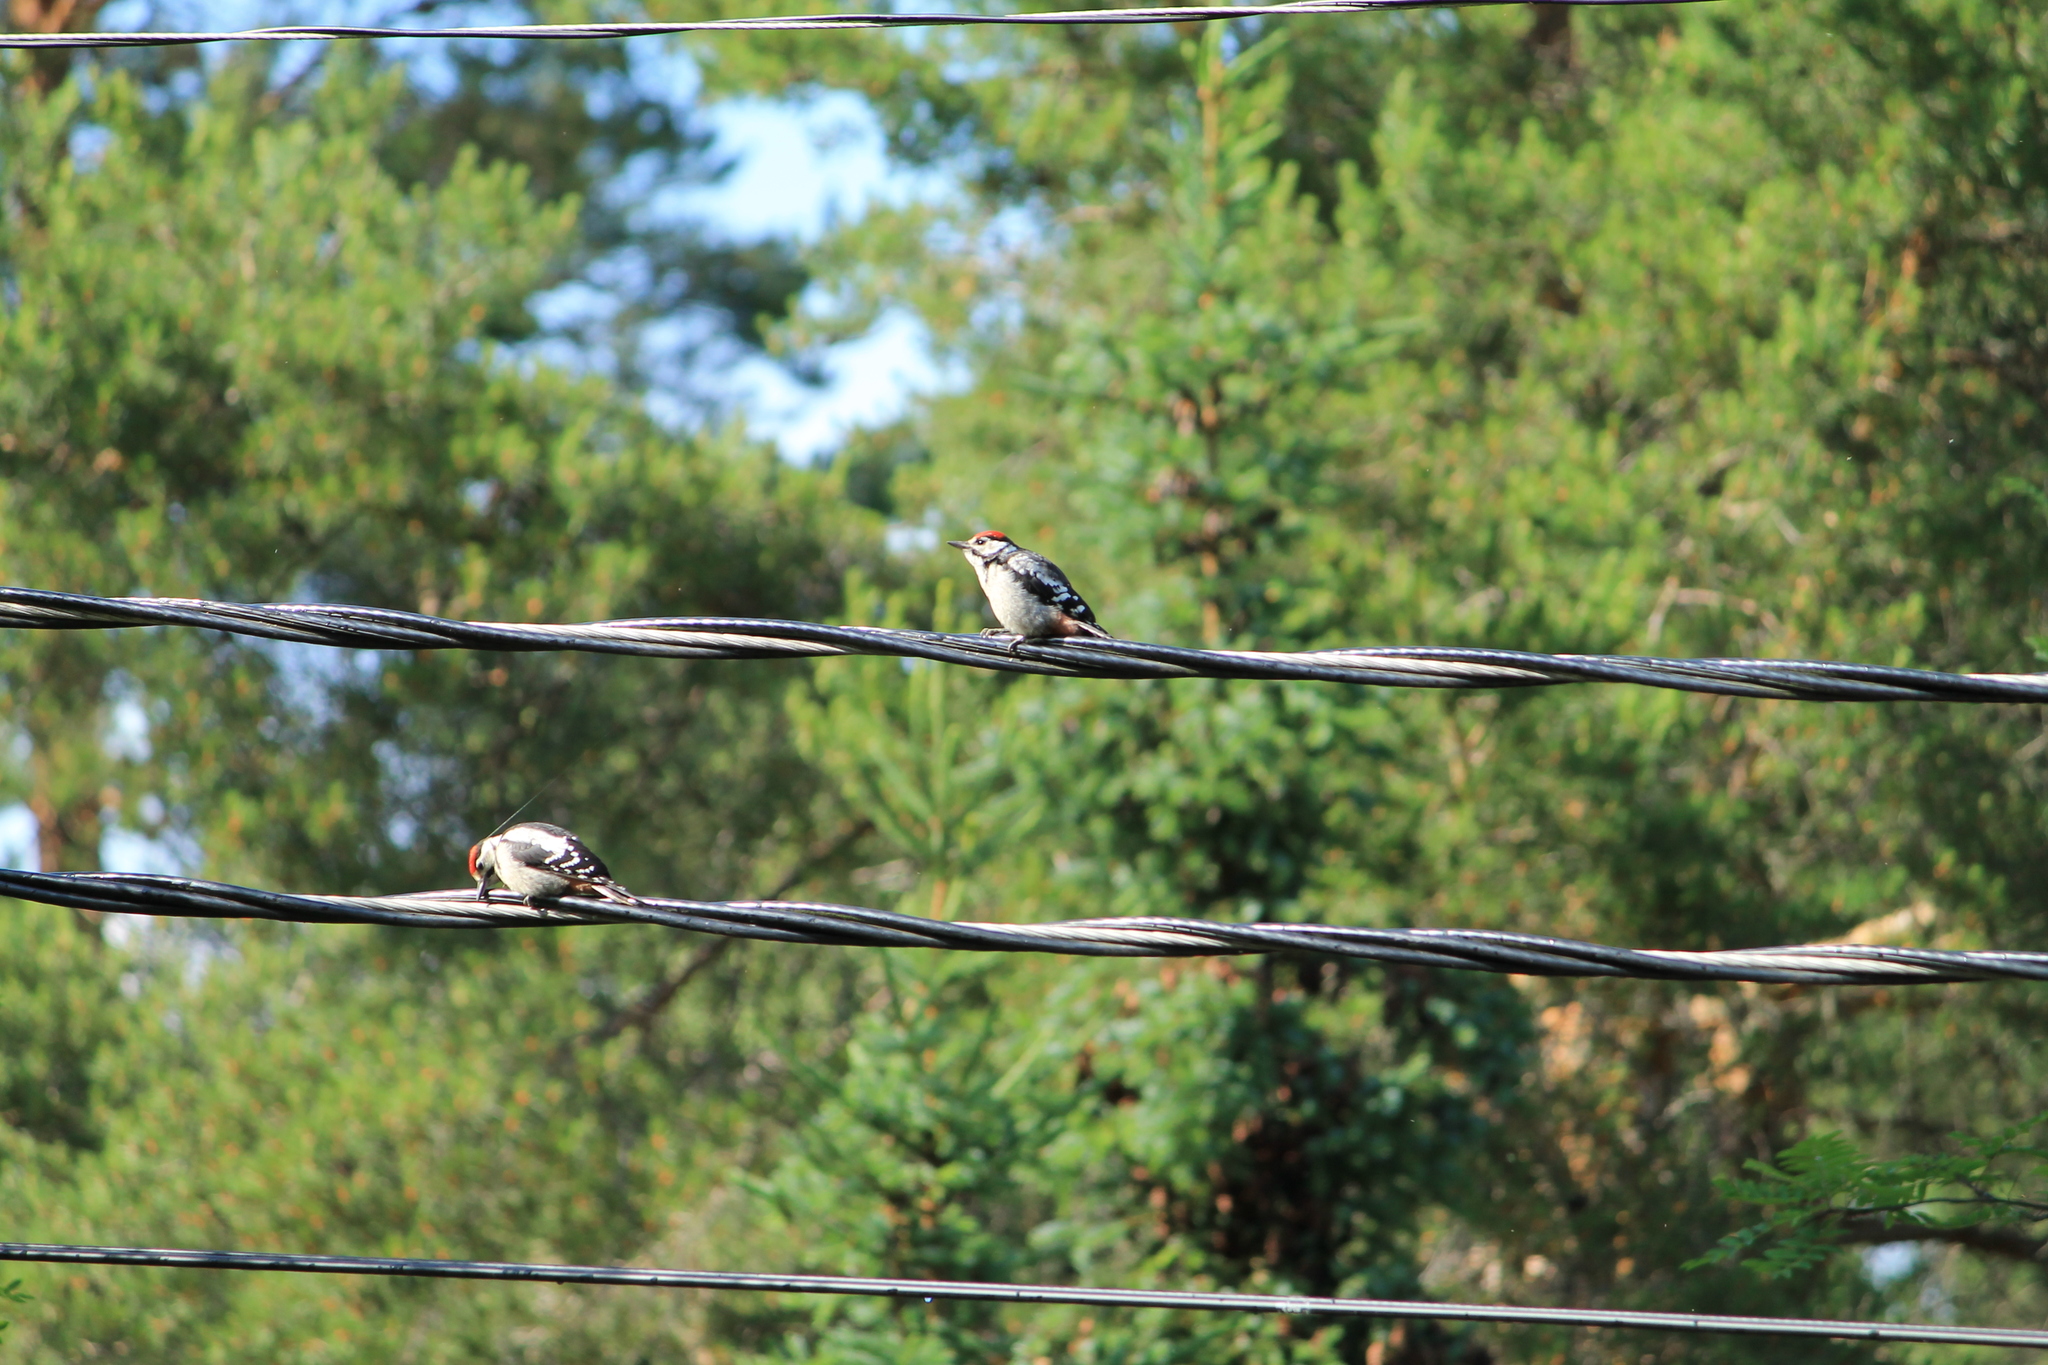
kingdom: Animalia
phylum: Chordata
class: Aves
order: Piciformes
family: Picidae
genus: Dendrocopos
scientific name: Dendrocopos major
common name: Great spotted woodpecker
